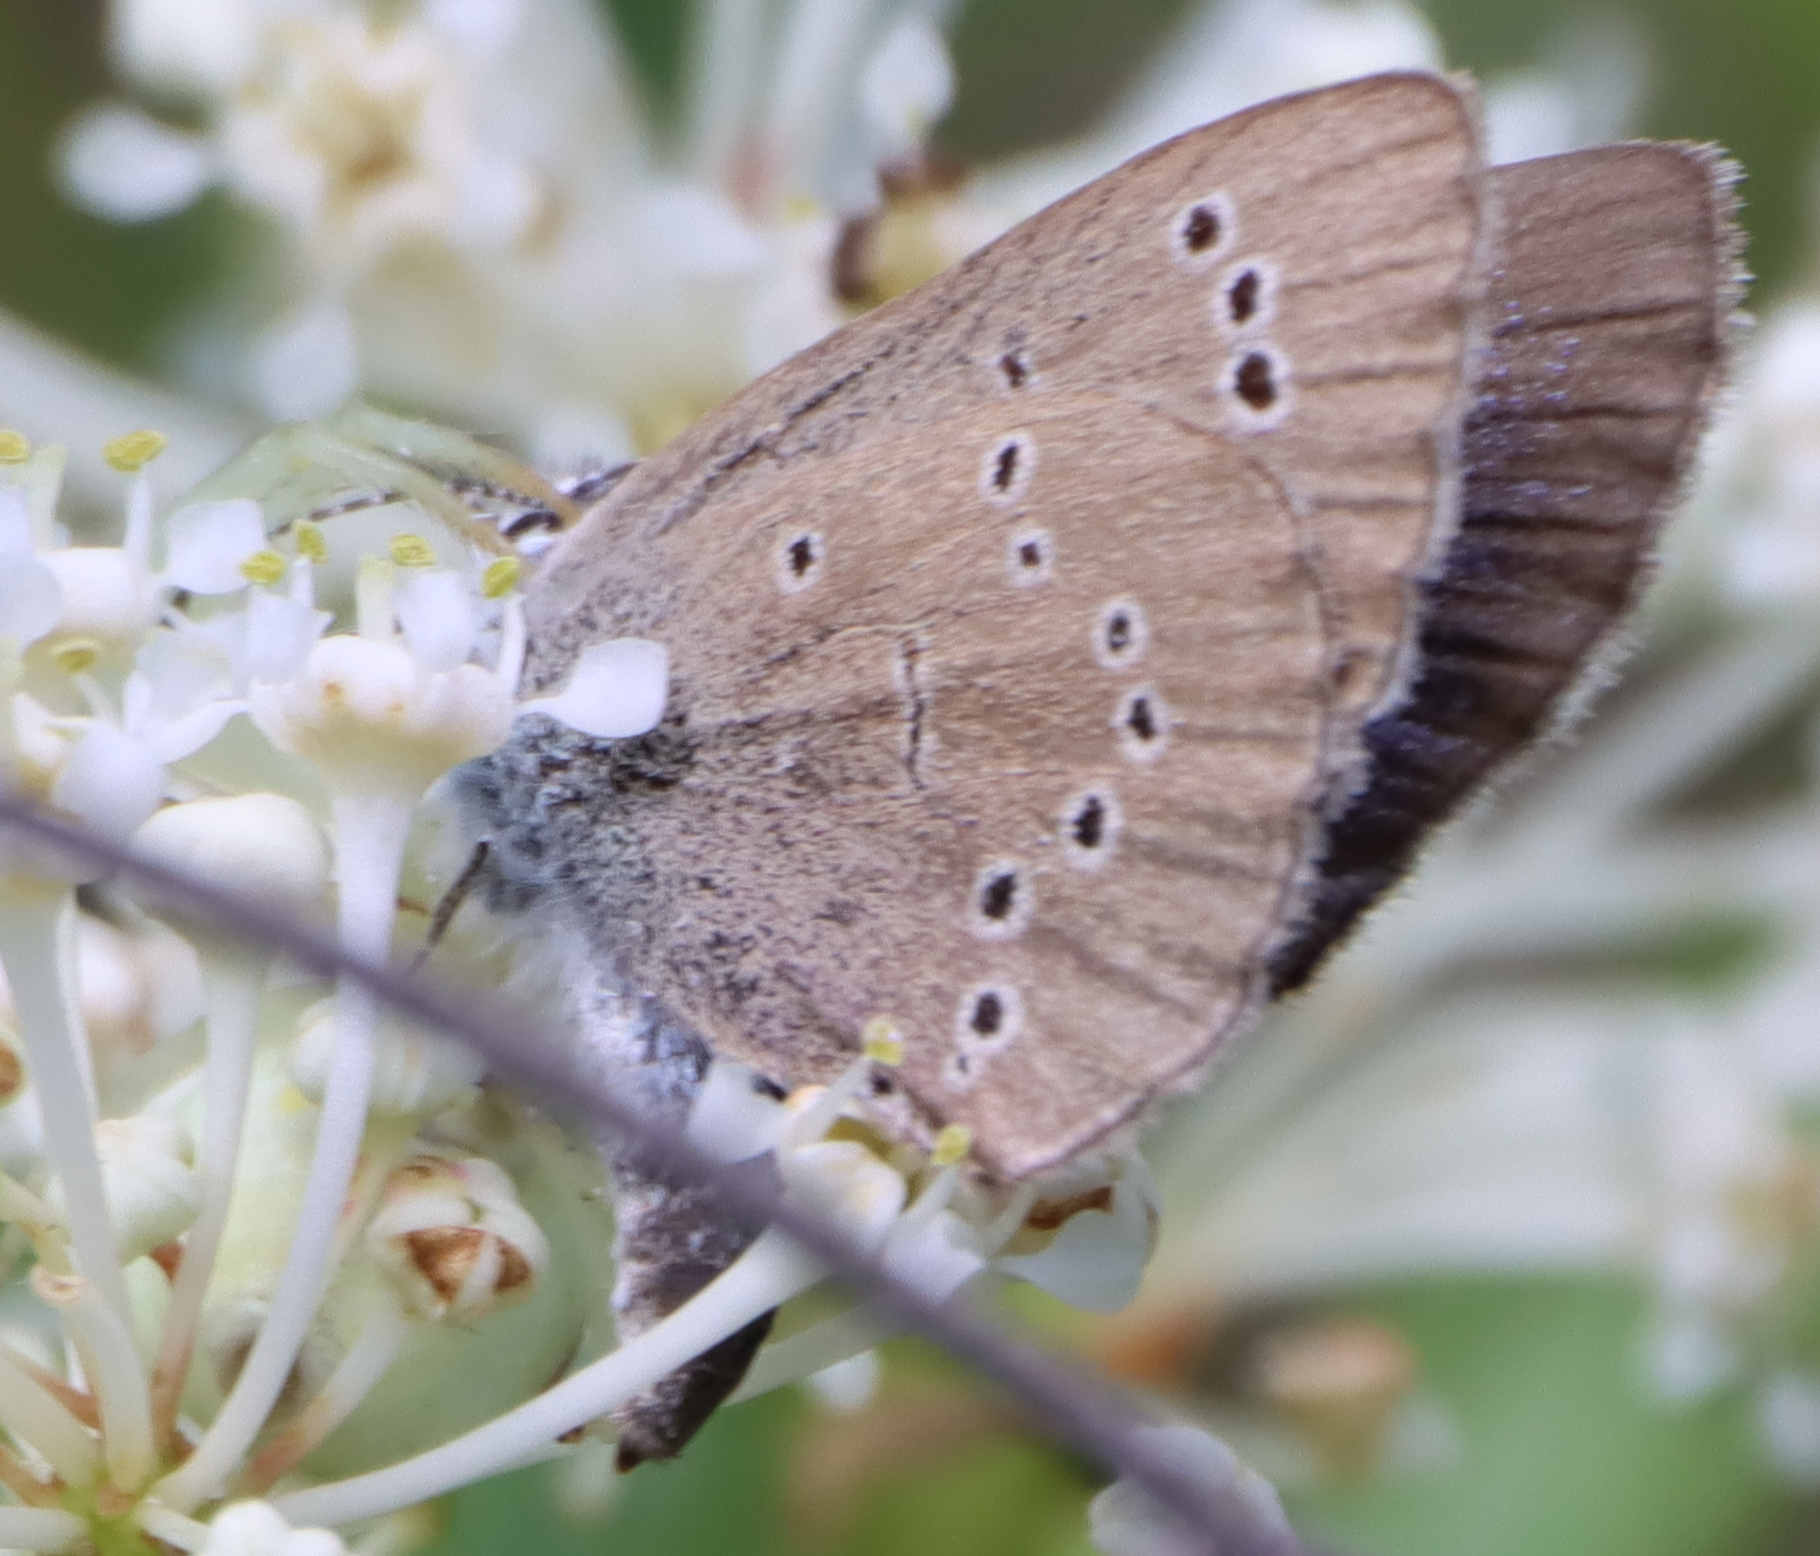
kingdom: Animalia
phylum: Arthropoda
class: Insecta
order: Lepidoptera
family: Lycaenidae
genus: Glaucopsyche
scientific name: Glaucopsyche lygdamus
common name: Silvery blue
